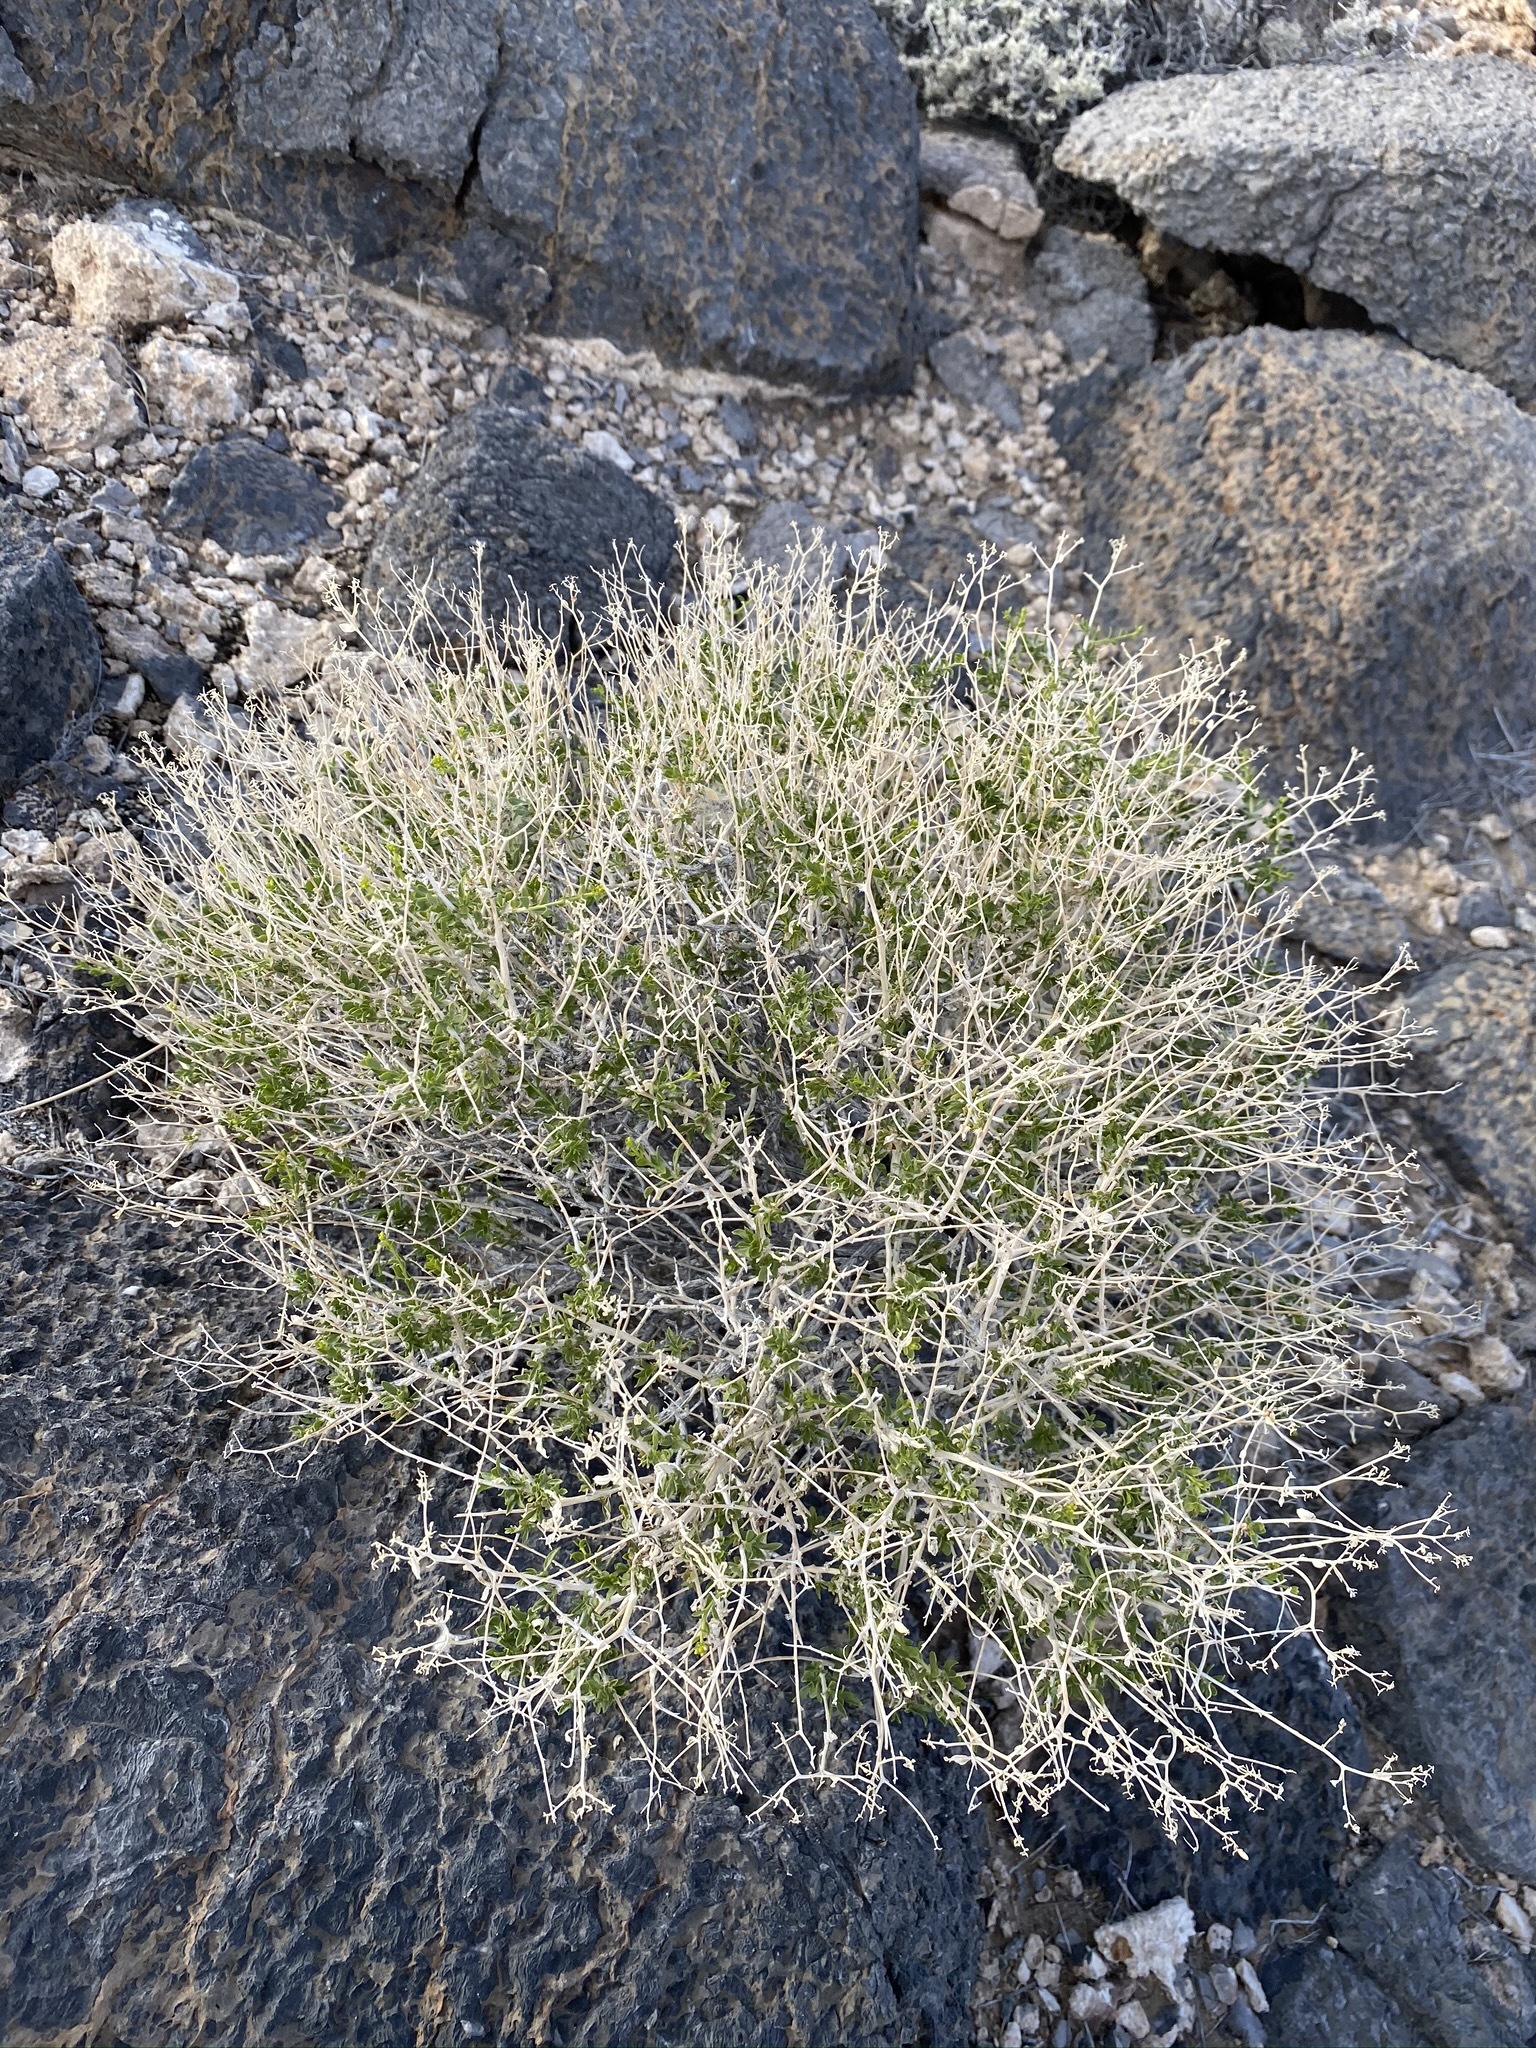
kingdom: Plantae
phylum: Tracheophyta
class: Magnoliopsida
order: Asterales
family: Asteraceae
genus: Amphipappus
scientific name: Amphipappus fremontii
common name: Fremont's chaffbush
